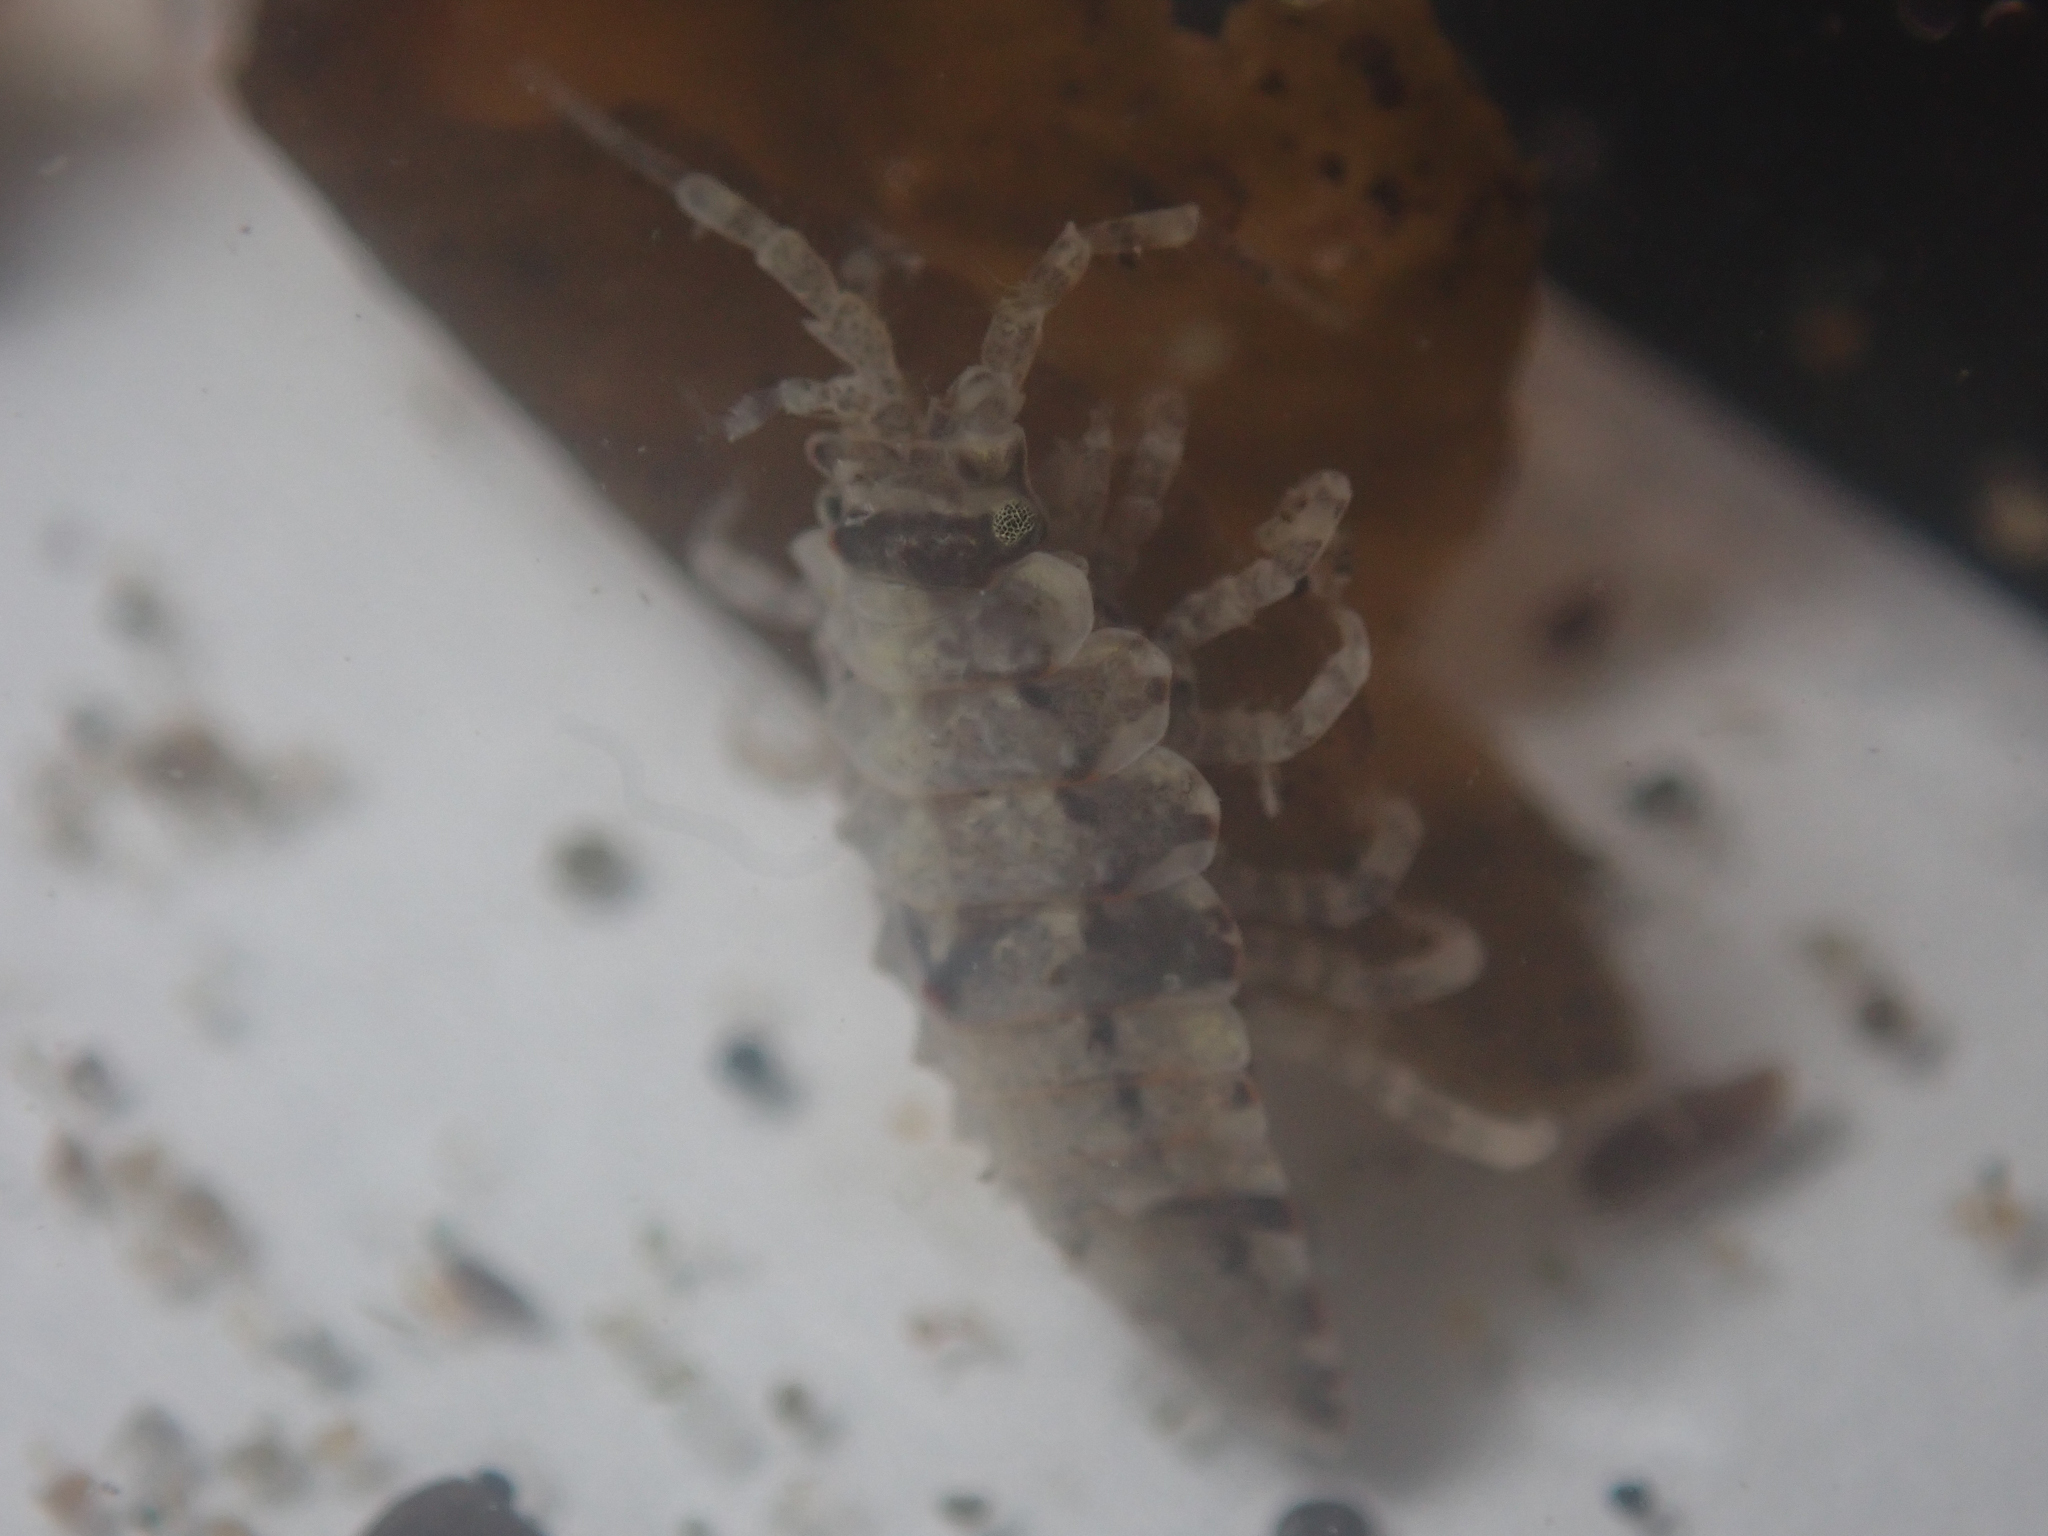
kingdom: Animalia
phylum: Arthropoda
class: Malacostraca
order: Isopoda
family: Idoteidae
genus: Synidotea
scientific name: Synidotea pettiboneae
